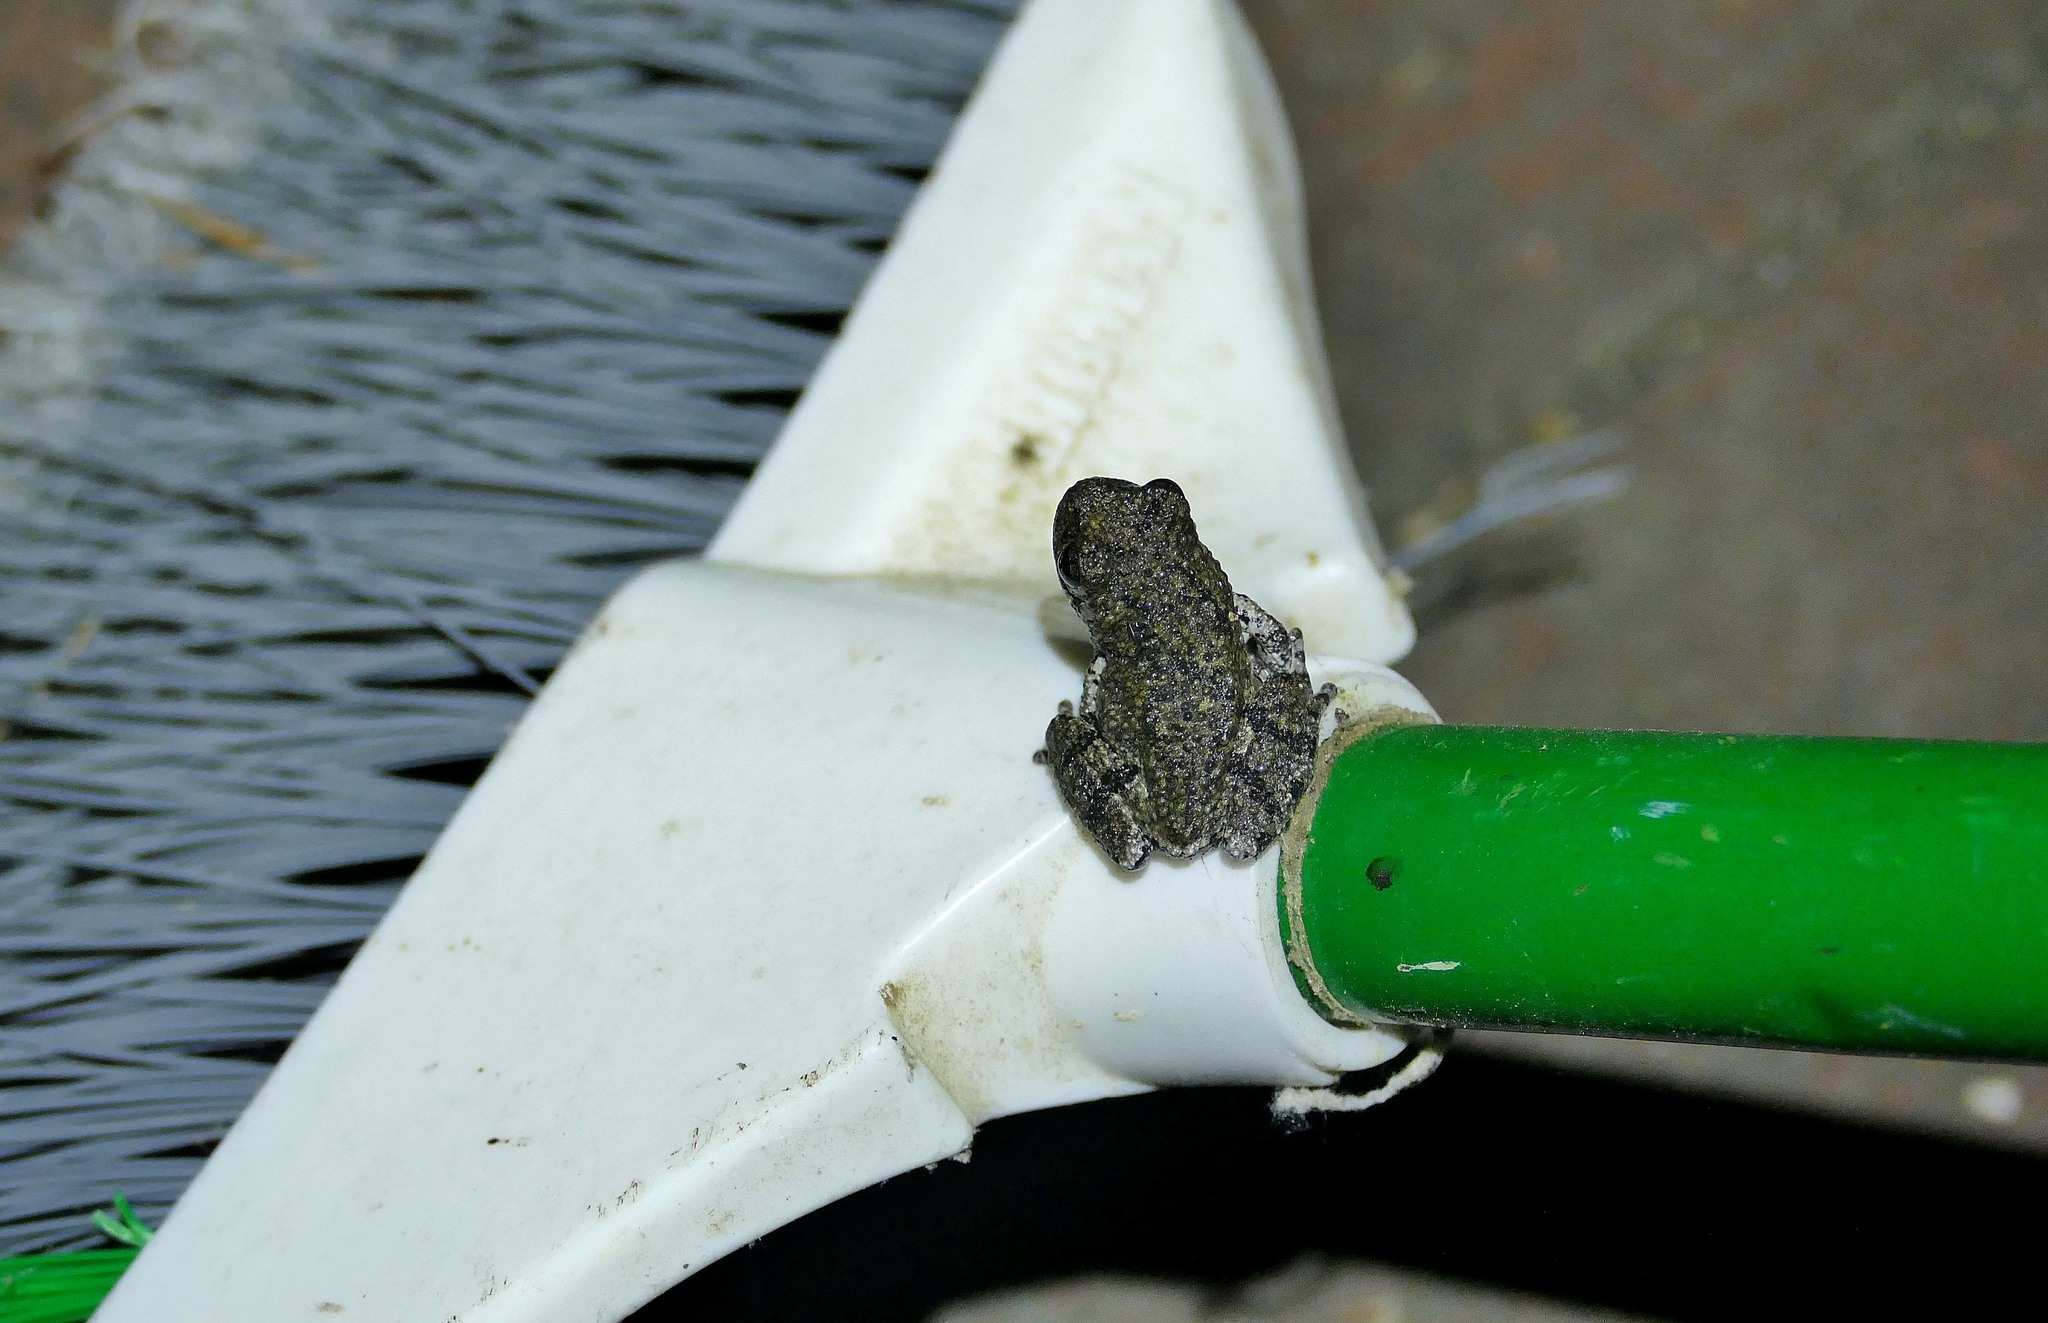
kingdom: Animalia
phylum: Chordata
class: Amphibia
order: Anura
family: Hylidae
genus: Dryophytes
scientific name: Dryophytes chrysoscelis
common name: Cope's gray treefrog
